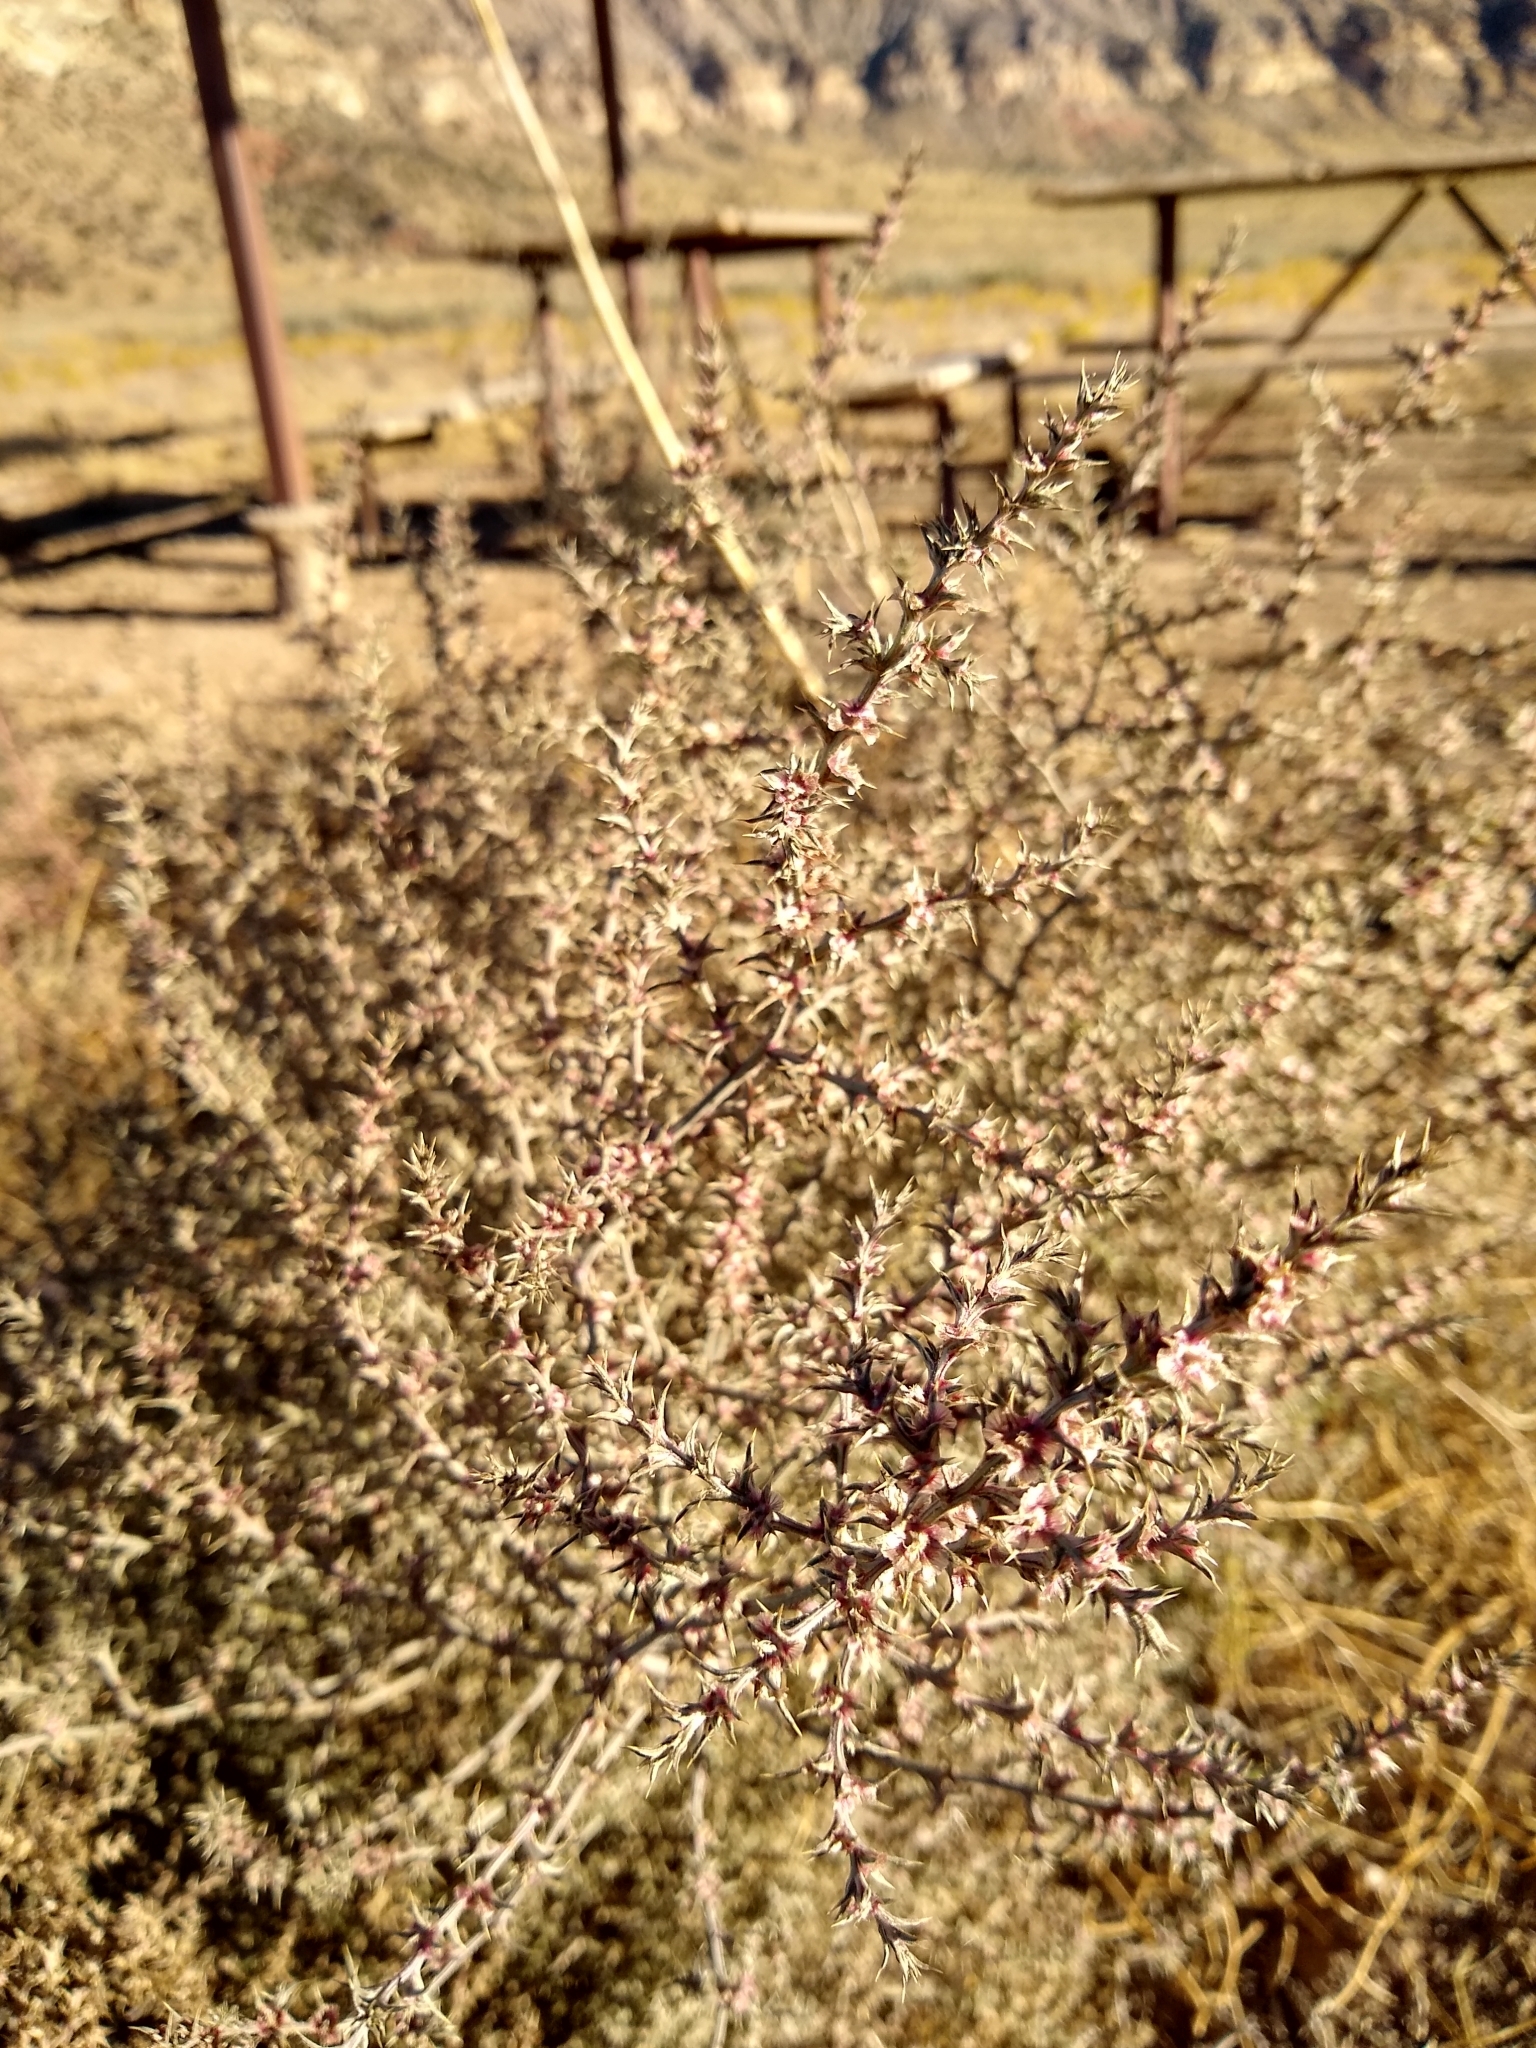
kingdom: Plantae
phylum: Tracheophyta
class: Magnoliopsida
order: Caryophyllales
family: Amaranthaceae
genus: Salsola
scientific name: Salsola tragus
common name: Prickly russian thistle
